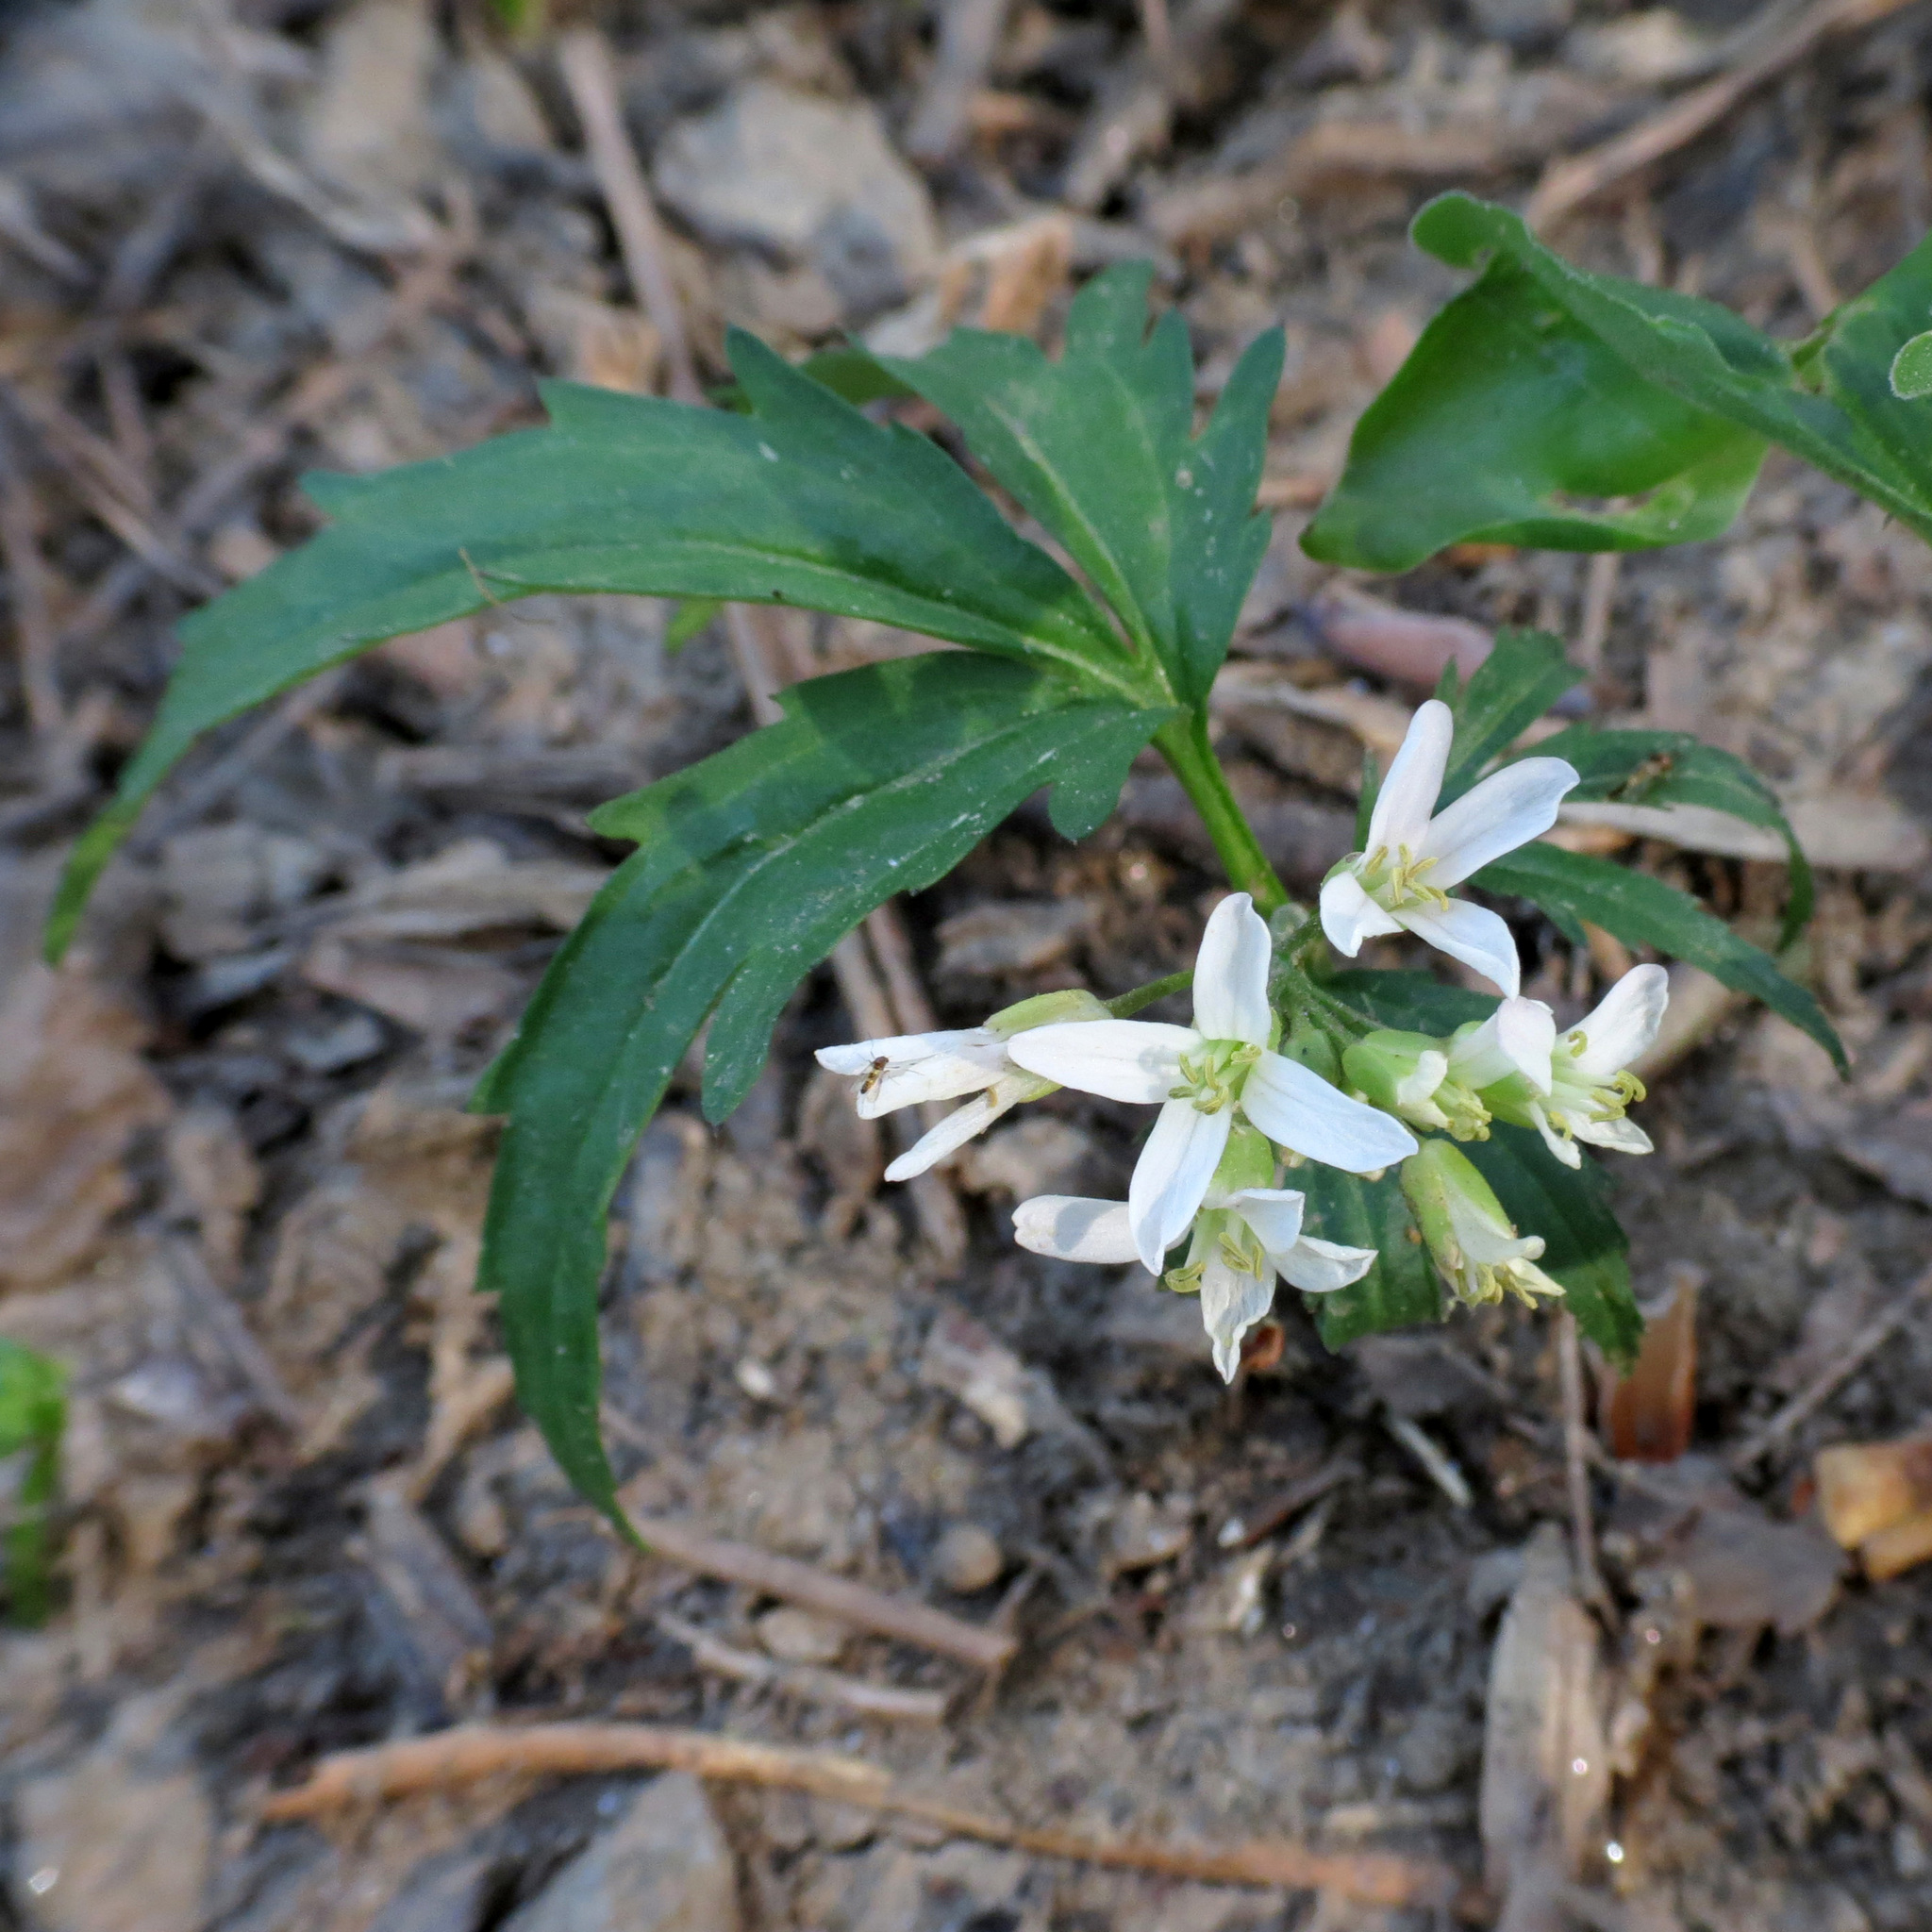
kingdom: Plantae
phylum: Tracheophyta
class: Magnoliopsida
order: Brassicales
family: Brassicaceae
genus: Cardamine
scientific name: Cardamine concatenata
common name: Cut-leaf toothcup
